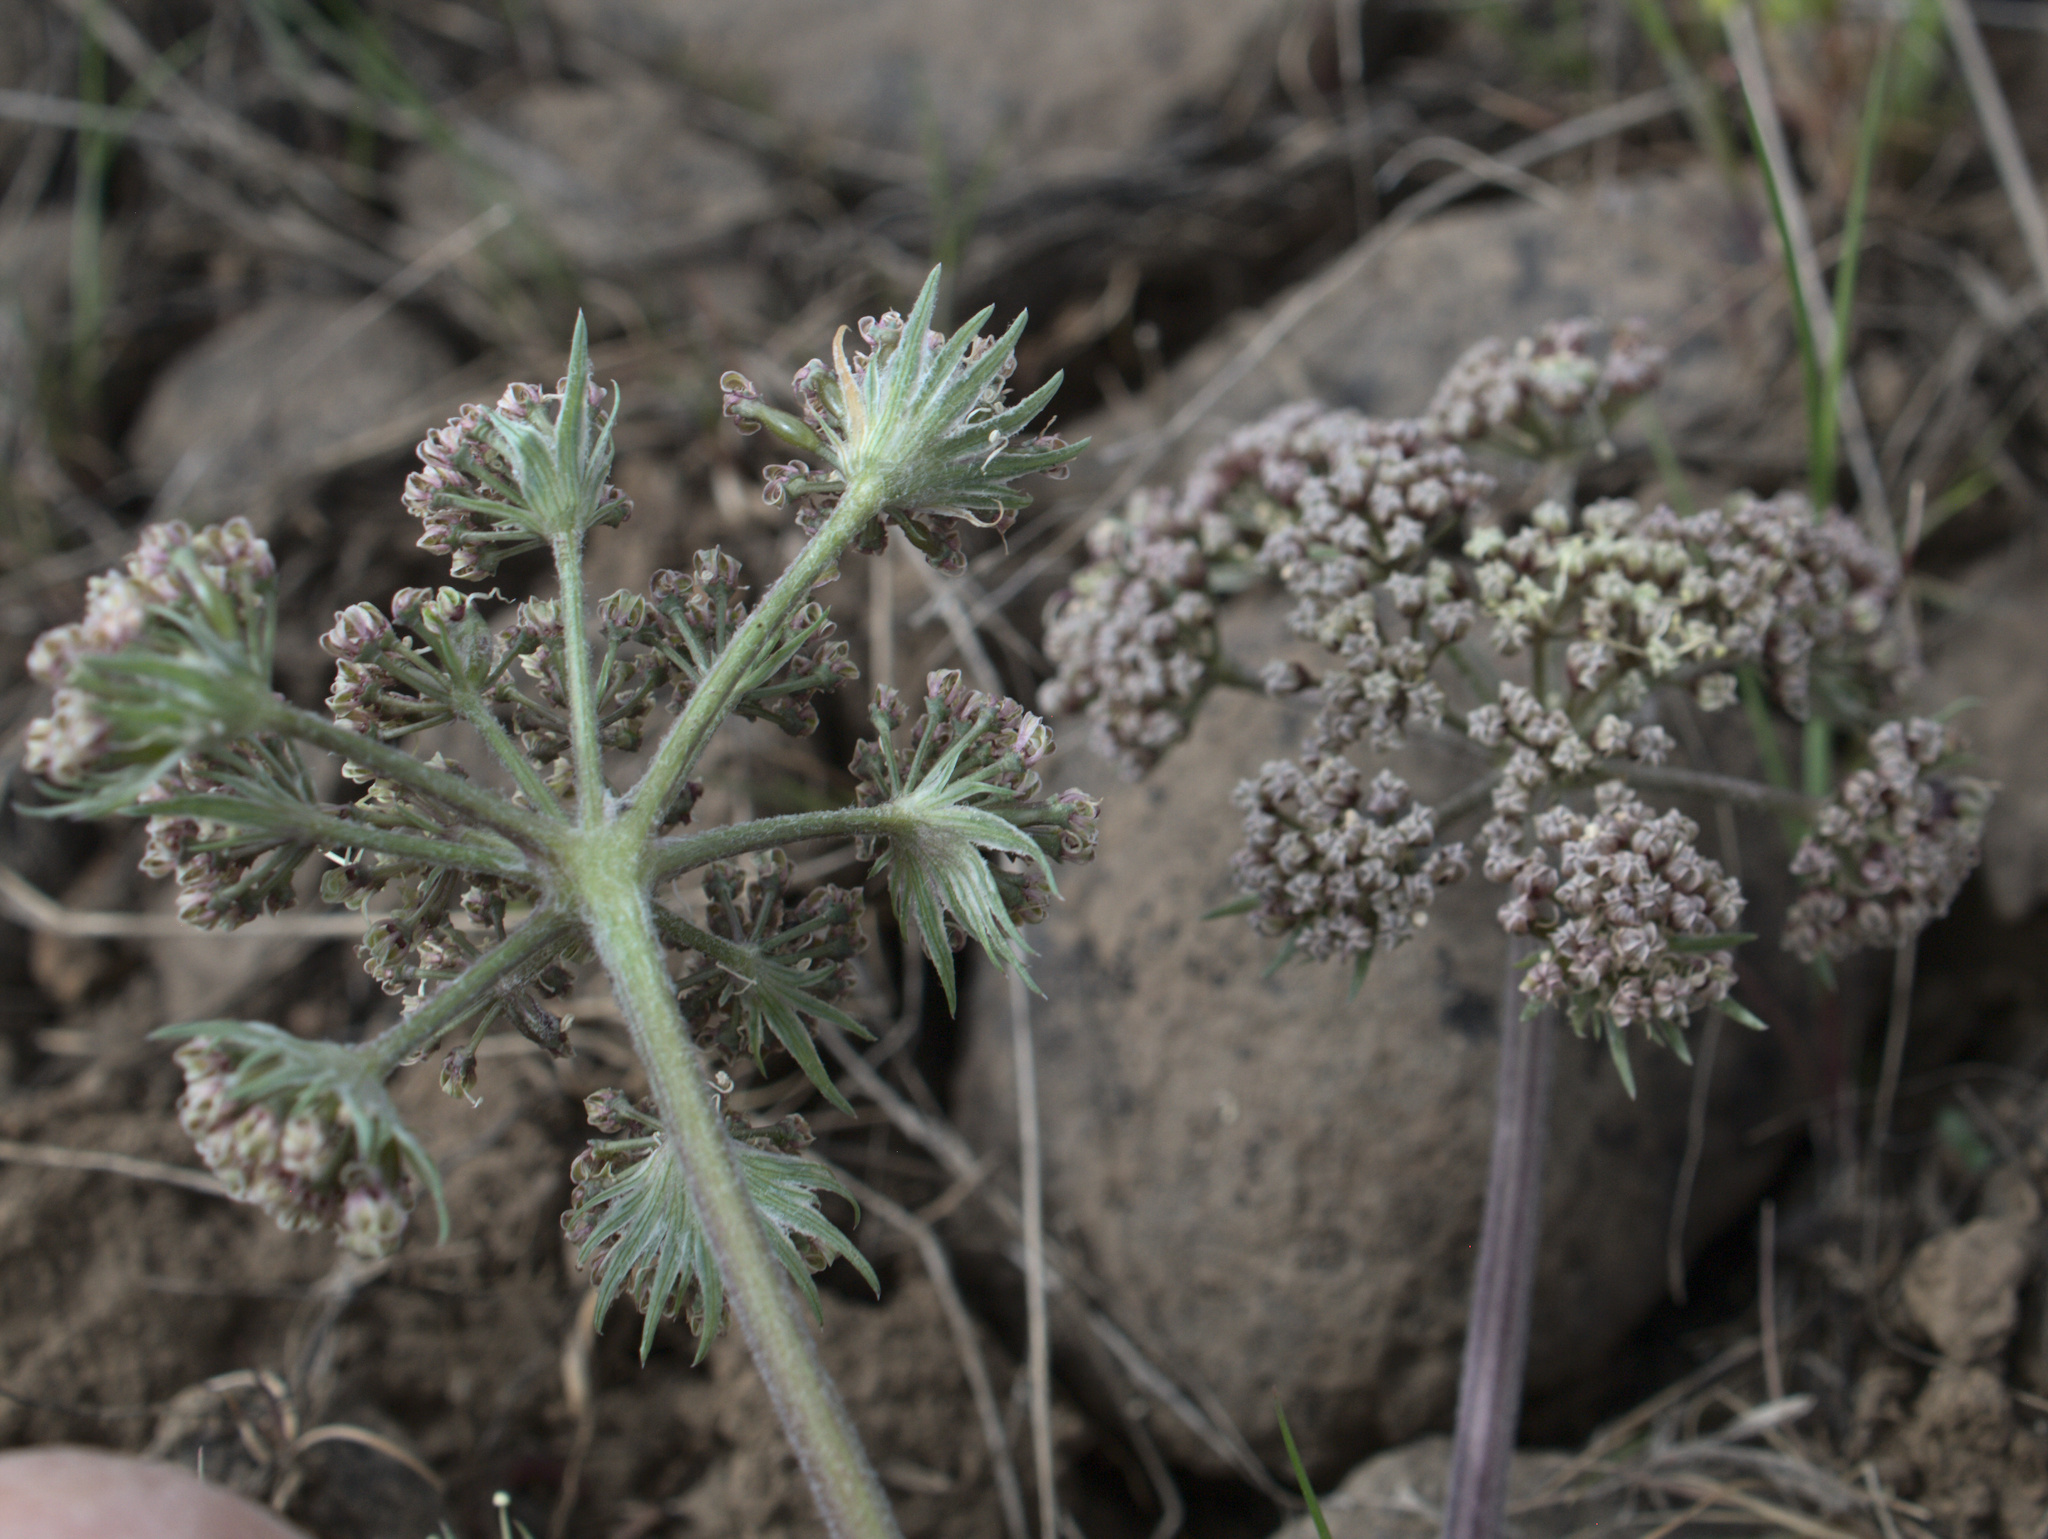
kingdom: Plantae
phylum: Tracheophyta
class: Magnoliopsida
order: Apiales
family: Apiaceae
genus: Lomatium
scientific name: Lomatium macrocarpum
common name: Big-seed biscuitroot
